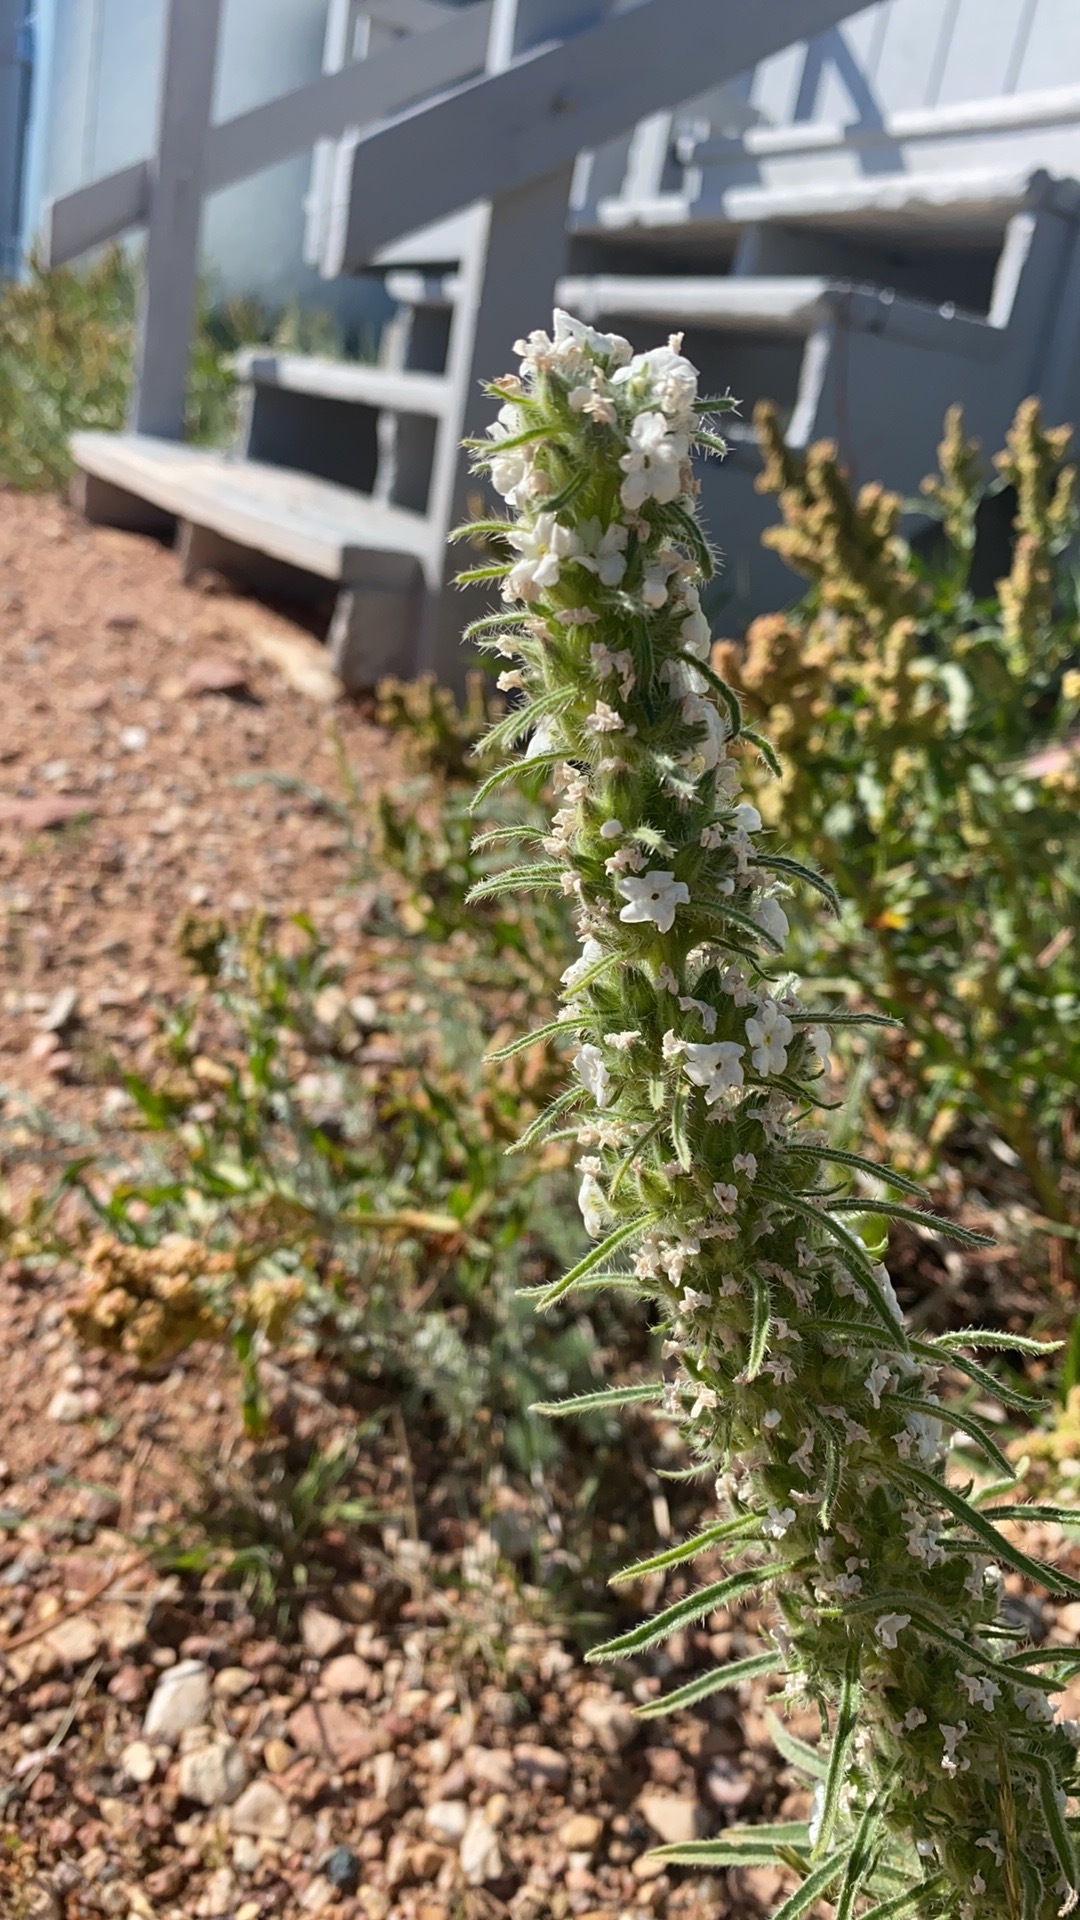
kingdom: Plantae
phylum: Tracheophyta
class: Magnoliopsida
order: Boraginales
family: Boraginaceae
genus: Oreocarya
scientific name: Oreocarya virgata
